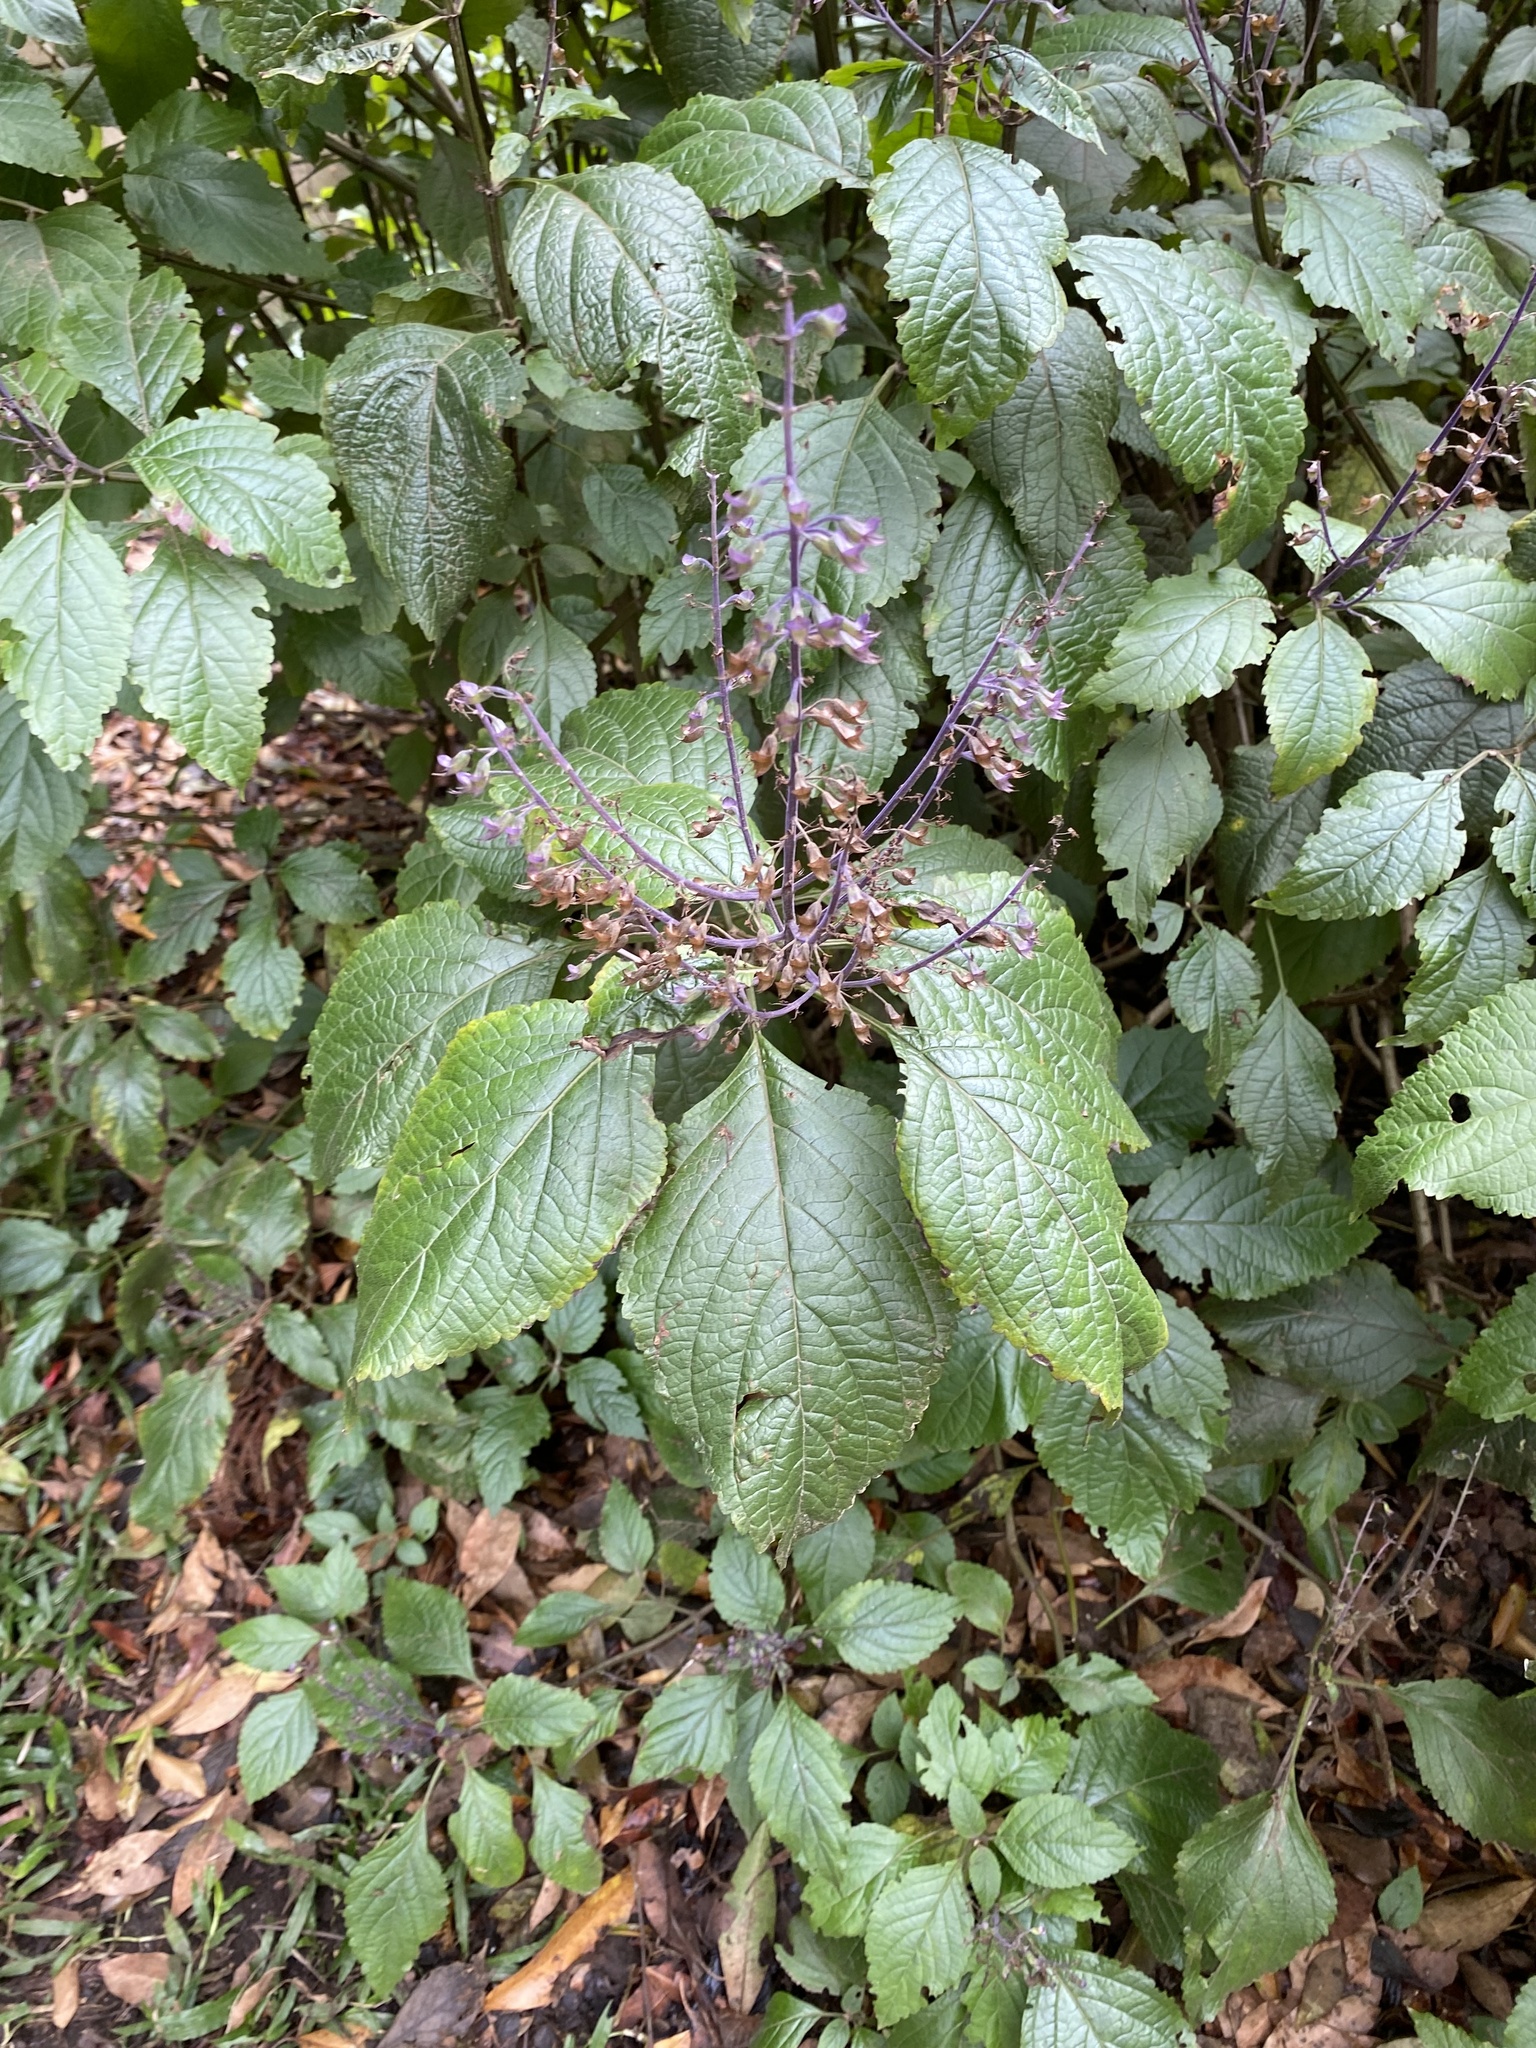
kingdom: Plantae
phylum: Tracheophyta
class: Magnoliopsida
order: Lamiales
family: Lamiaceae
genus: Plectranthus
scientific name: Plectranthus ecklonii
